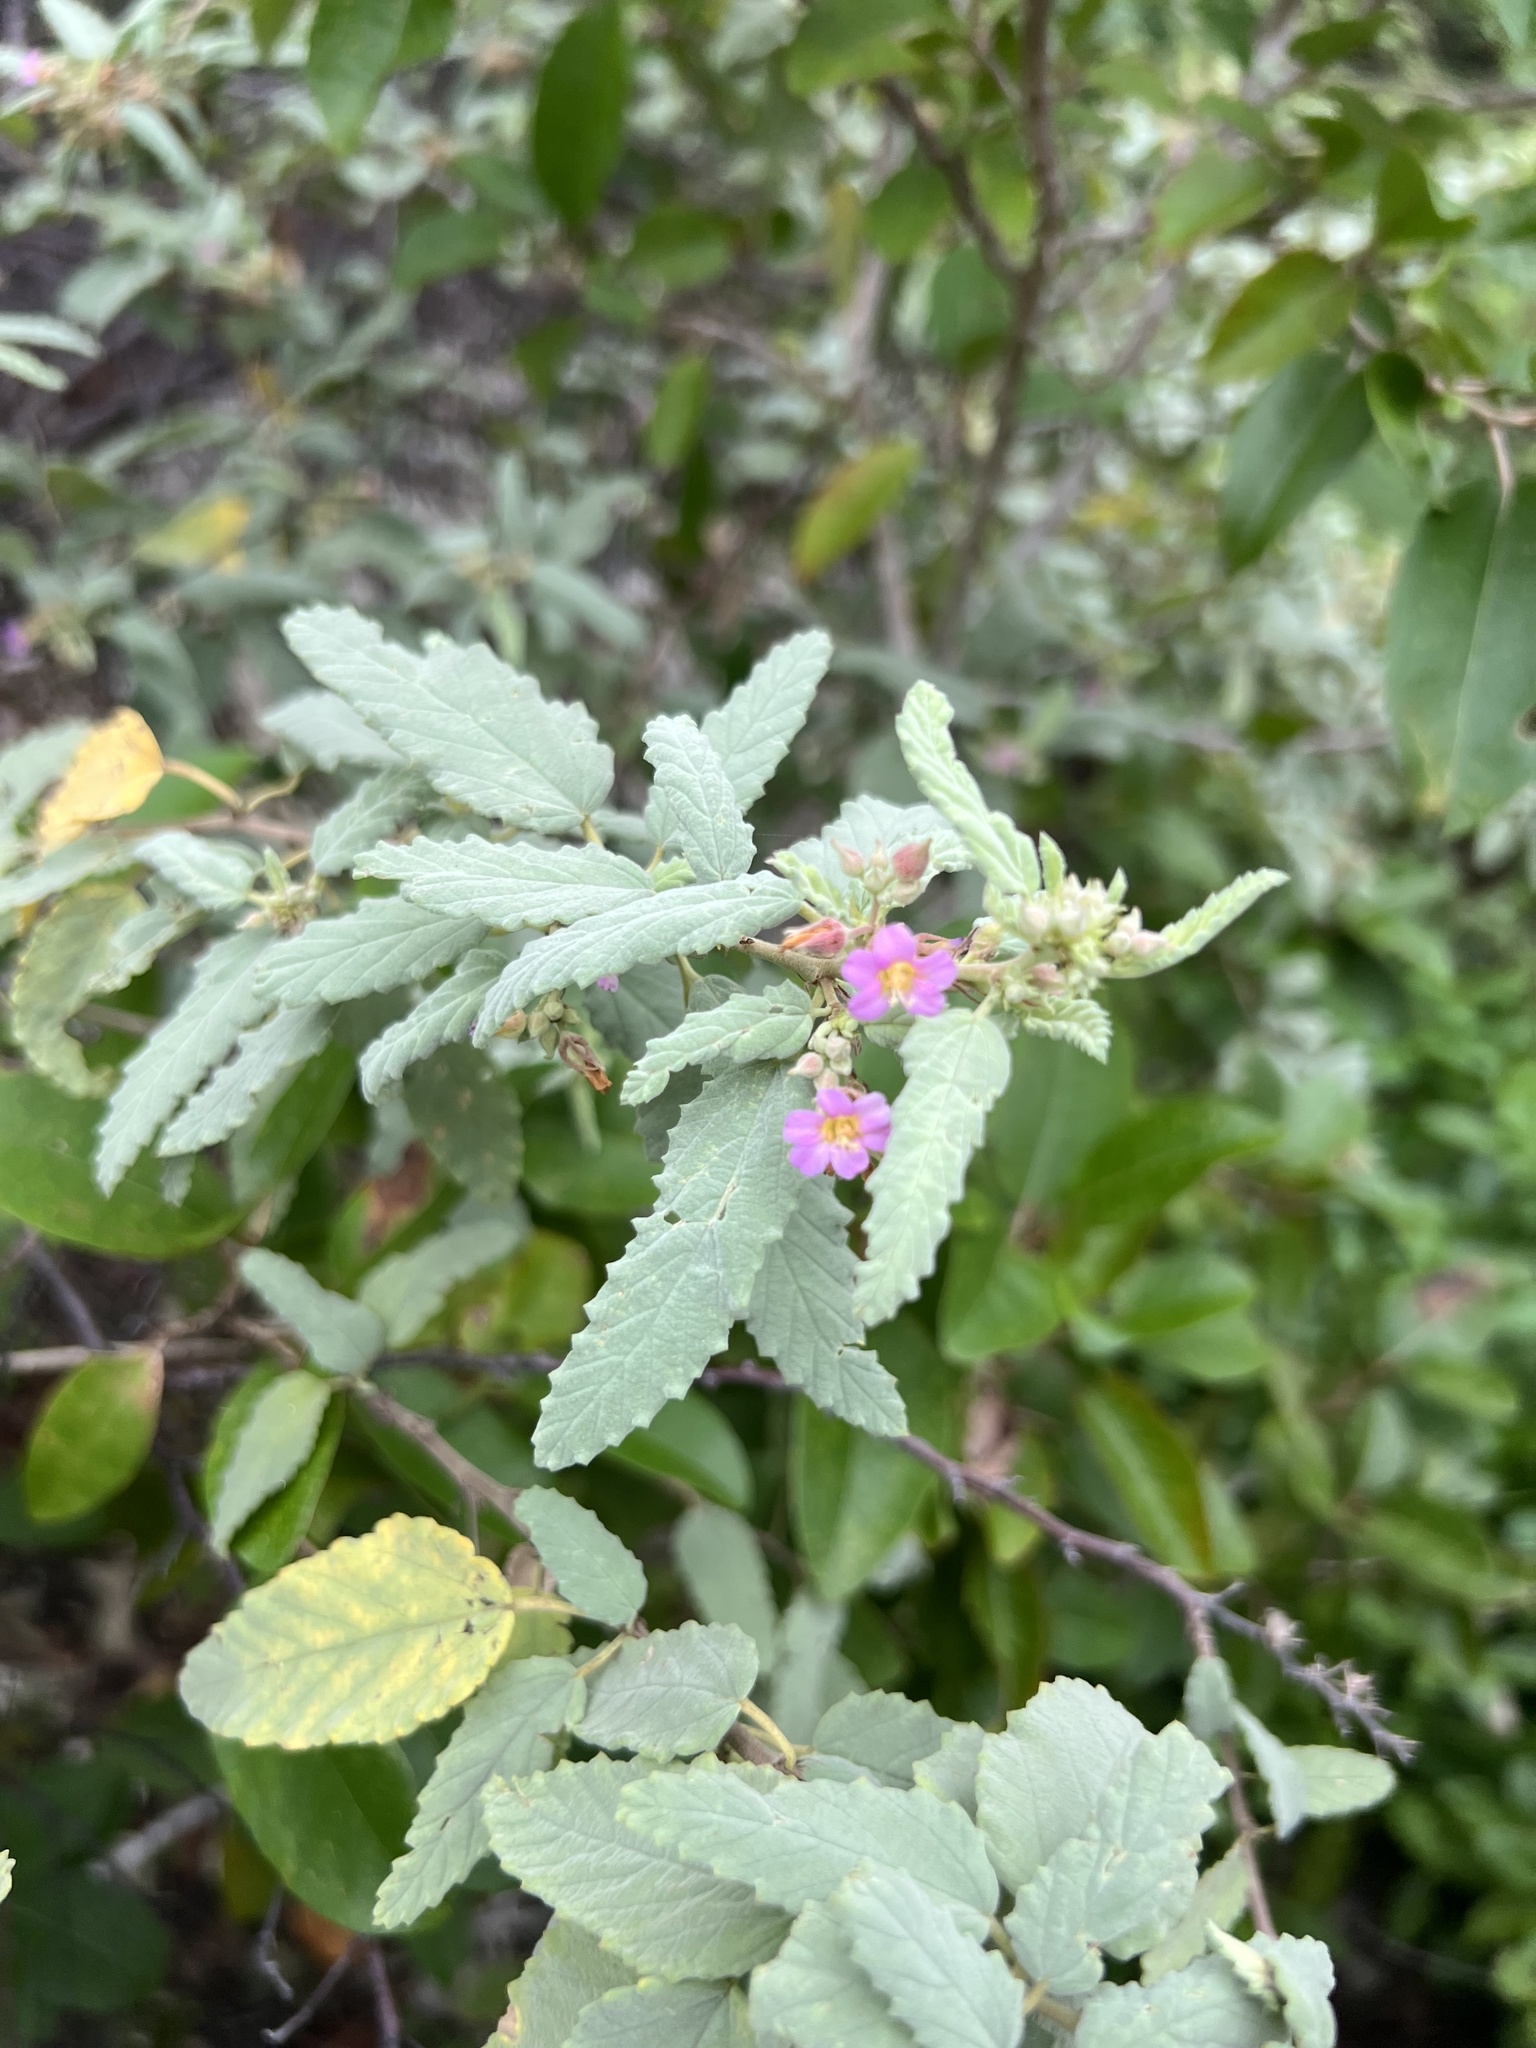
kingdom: Plantae
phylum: Tracheophyta
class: Magnoliopsida
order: Malvales
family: Malvaceae
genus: Melochia
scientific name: Melochia tomentosa
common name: Black torch
